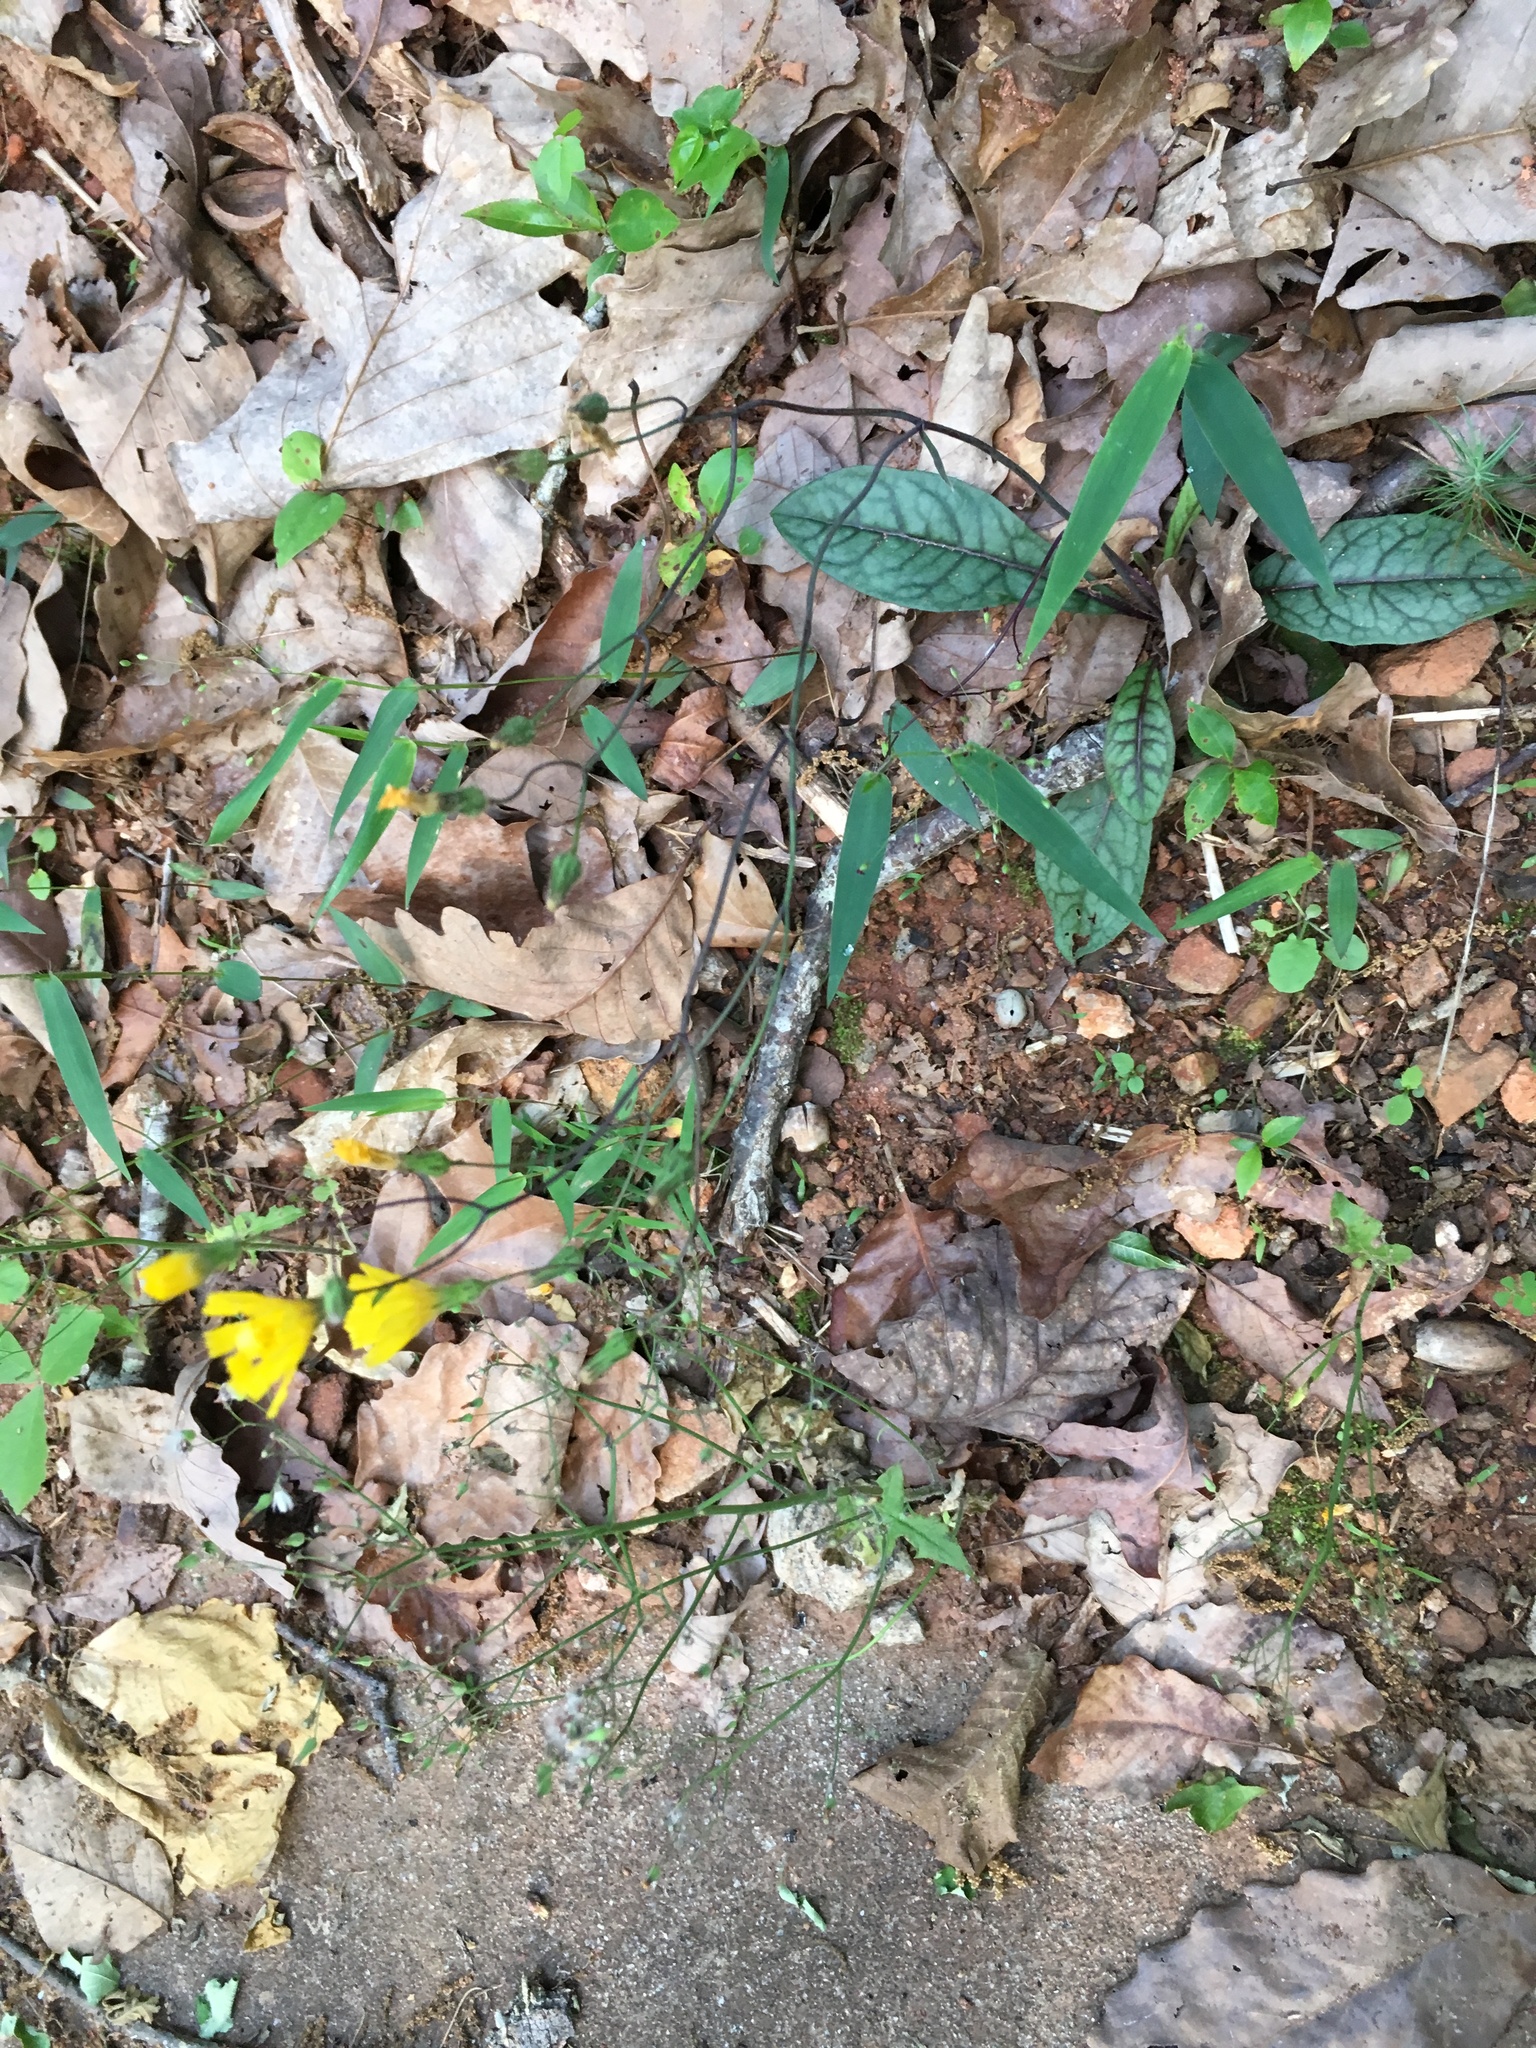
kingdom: Plantae
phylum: Tracheophyta
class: Magnoliopsida
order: Asterales
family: Asteraceae
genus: Hieracium
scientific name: Hieracium venosum
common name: Rattlesnake hawkweed
